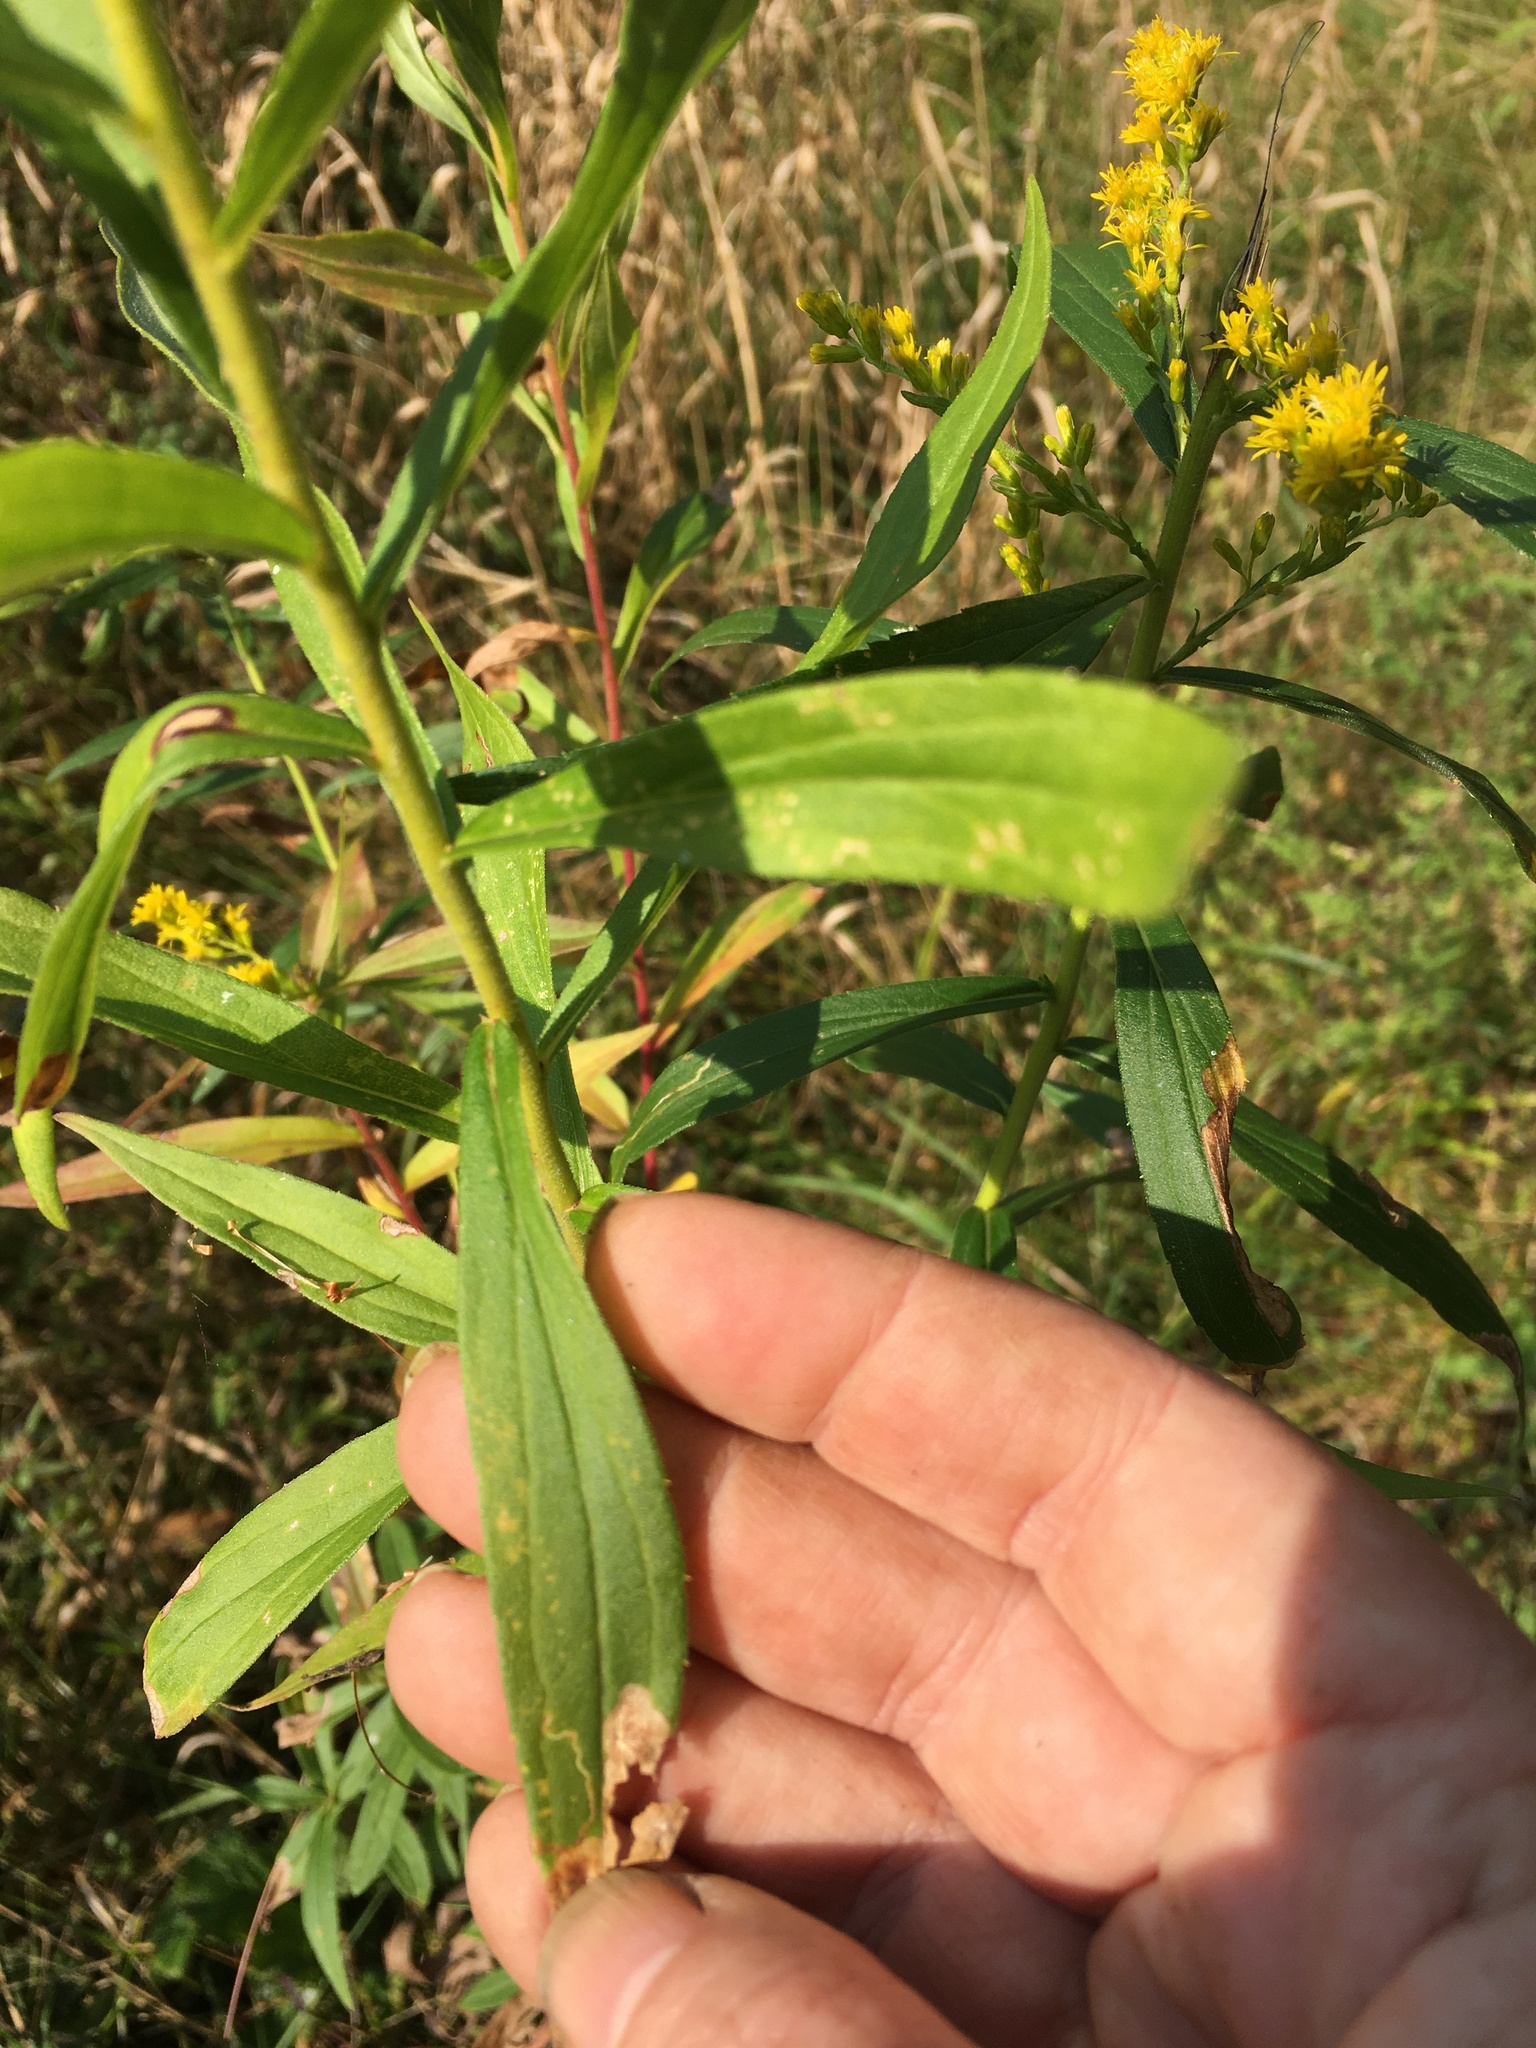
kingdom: Plantae
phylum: Tracheophyta
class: Magnoliopsida
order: Asterales
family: Asteraceae
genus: Solidago
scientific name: Solidago altissima
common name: Late goldenrod
